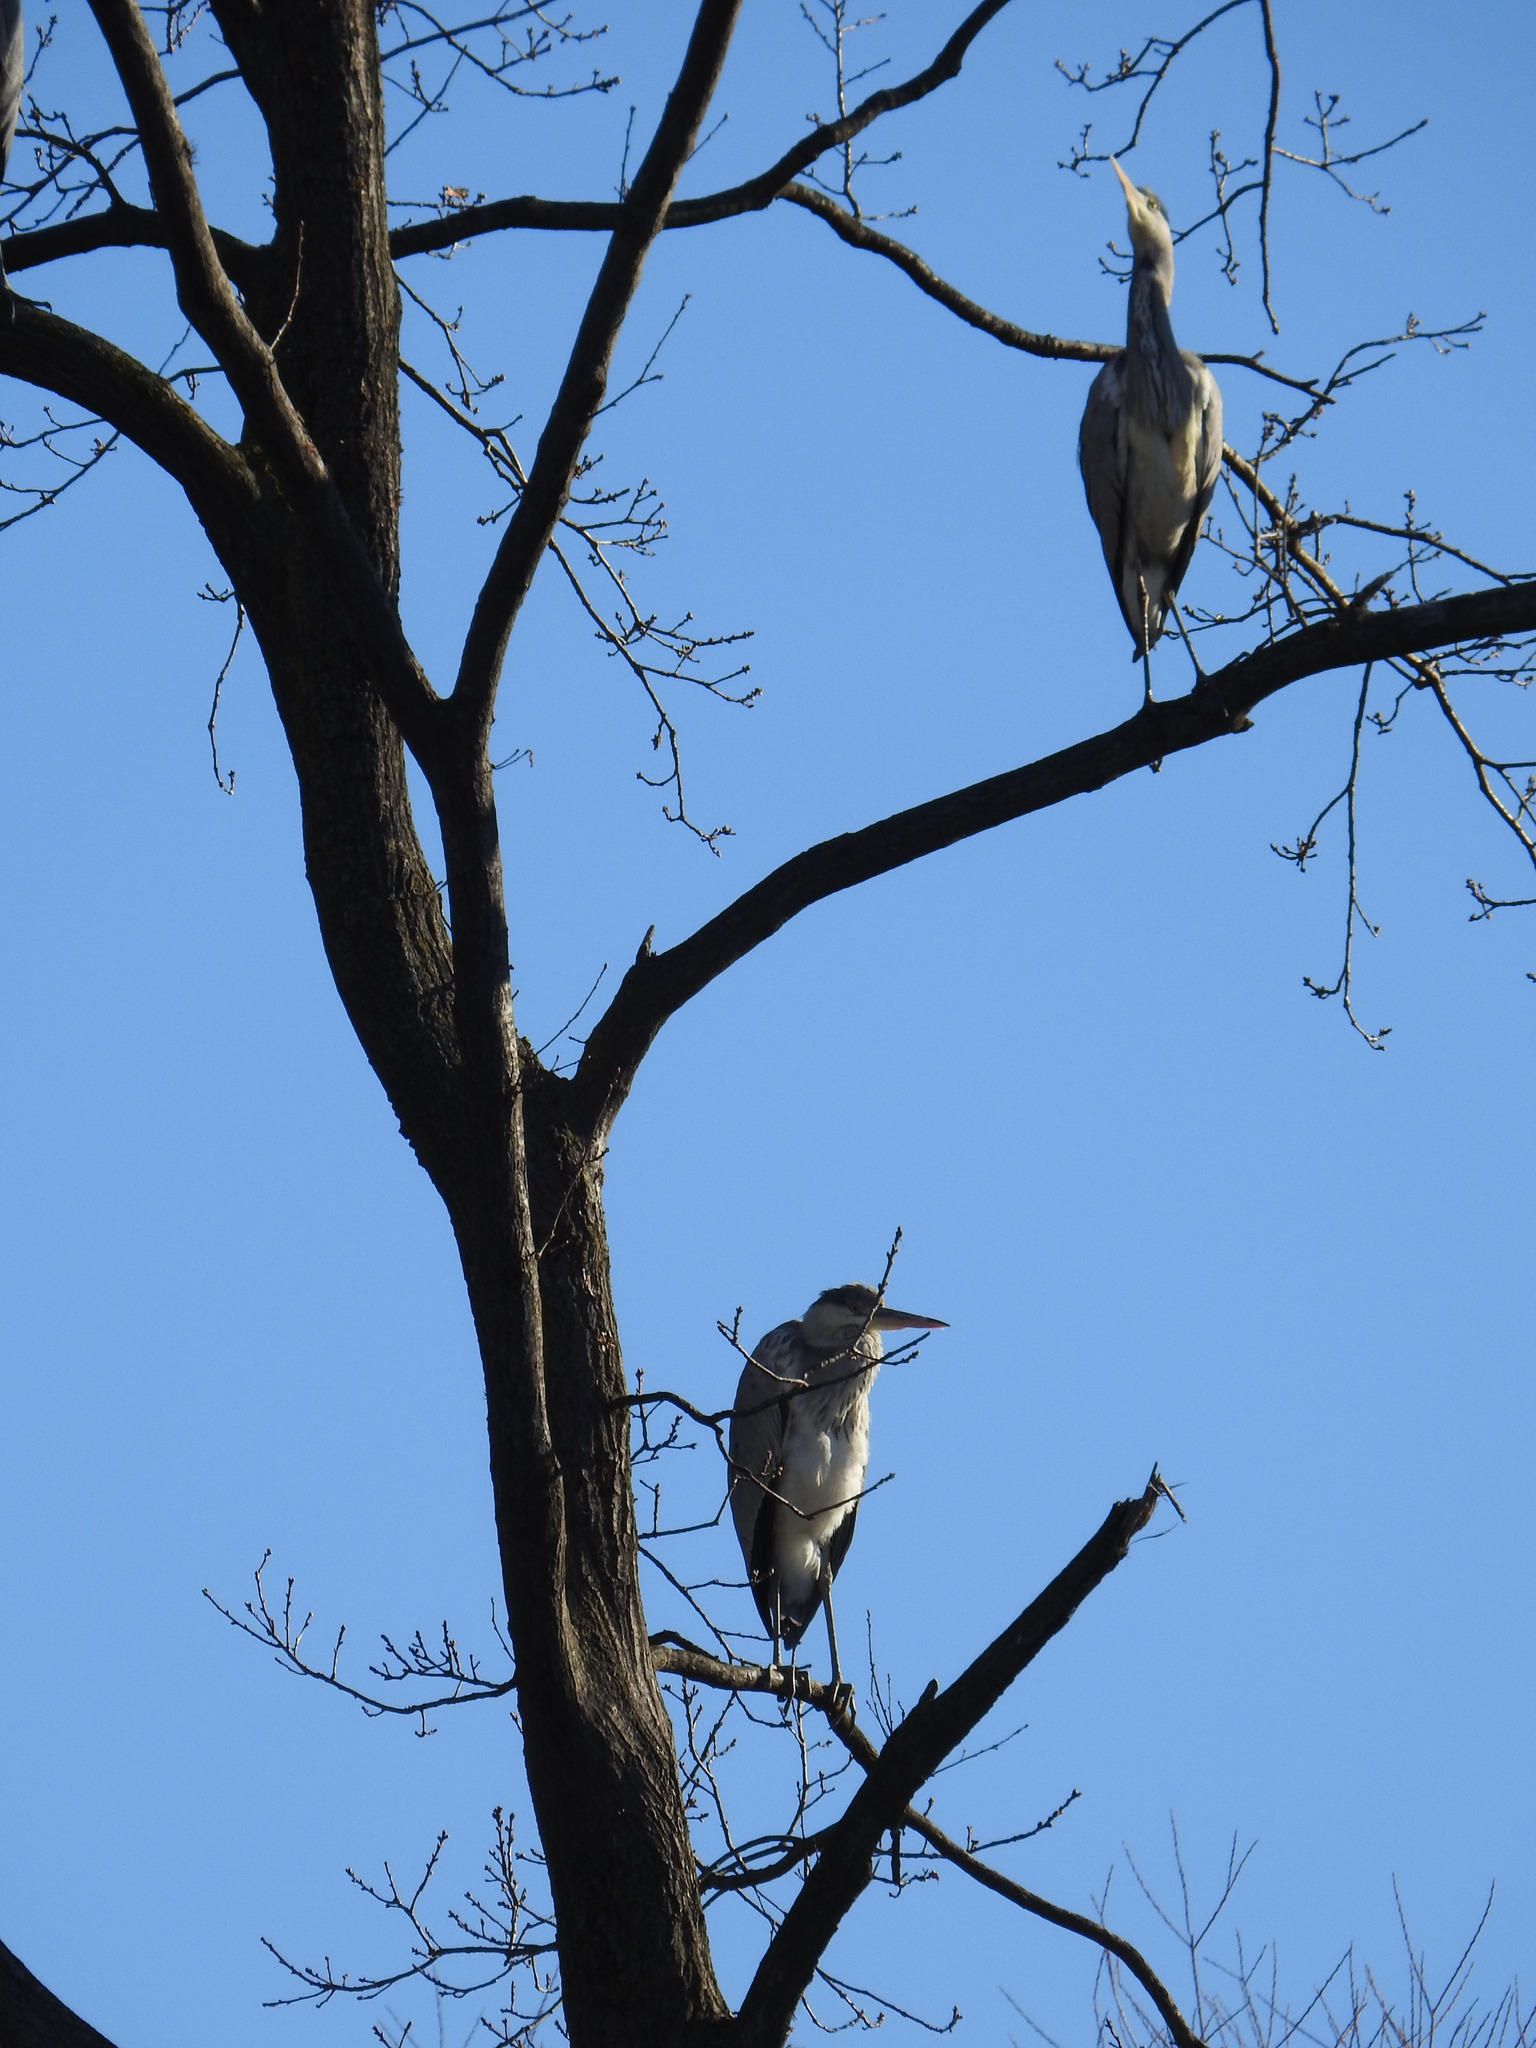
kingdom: Animalia
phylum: Chordata
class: Aves
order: Pelecaniformes
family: Ardeidae
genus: Ardea
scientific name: Ardea cinerea
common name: Grey heron
